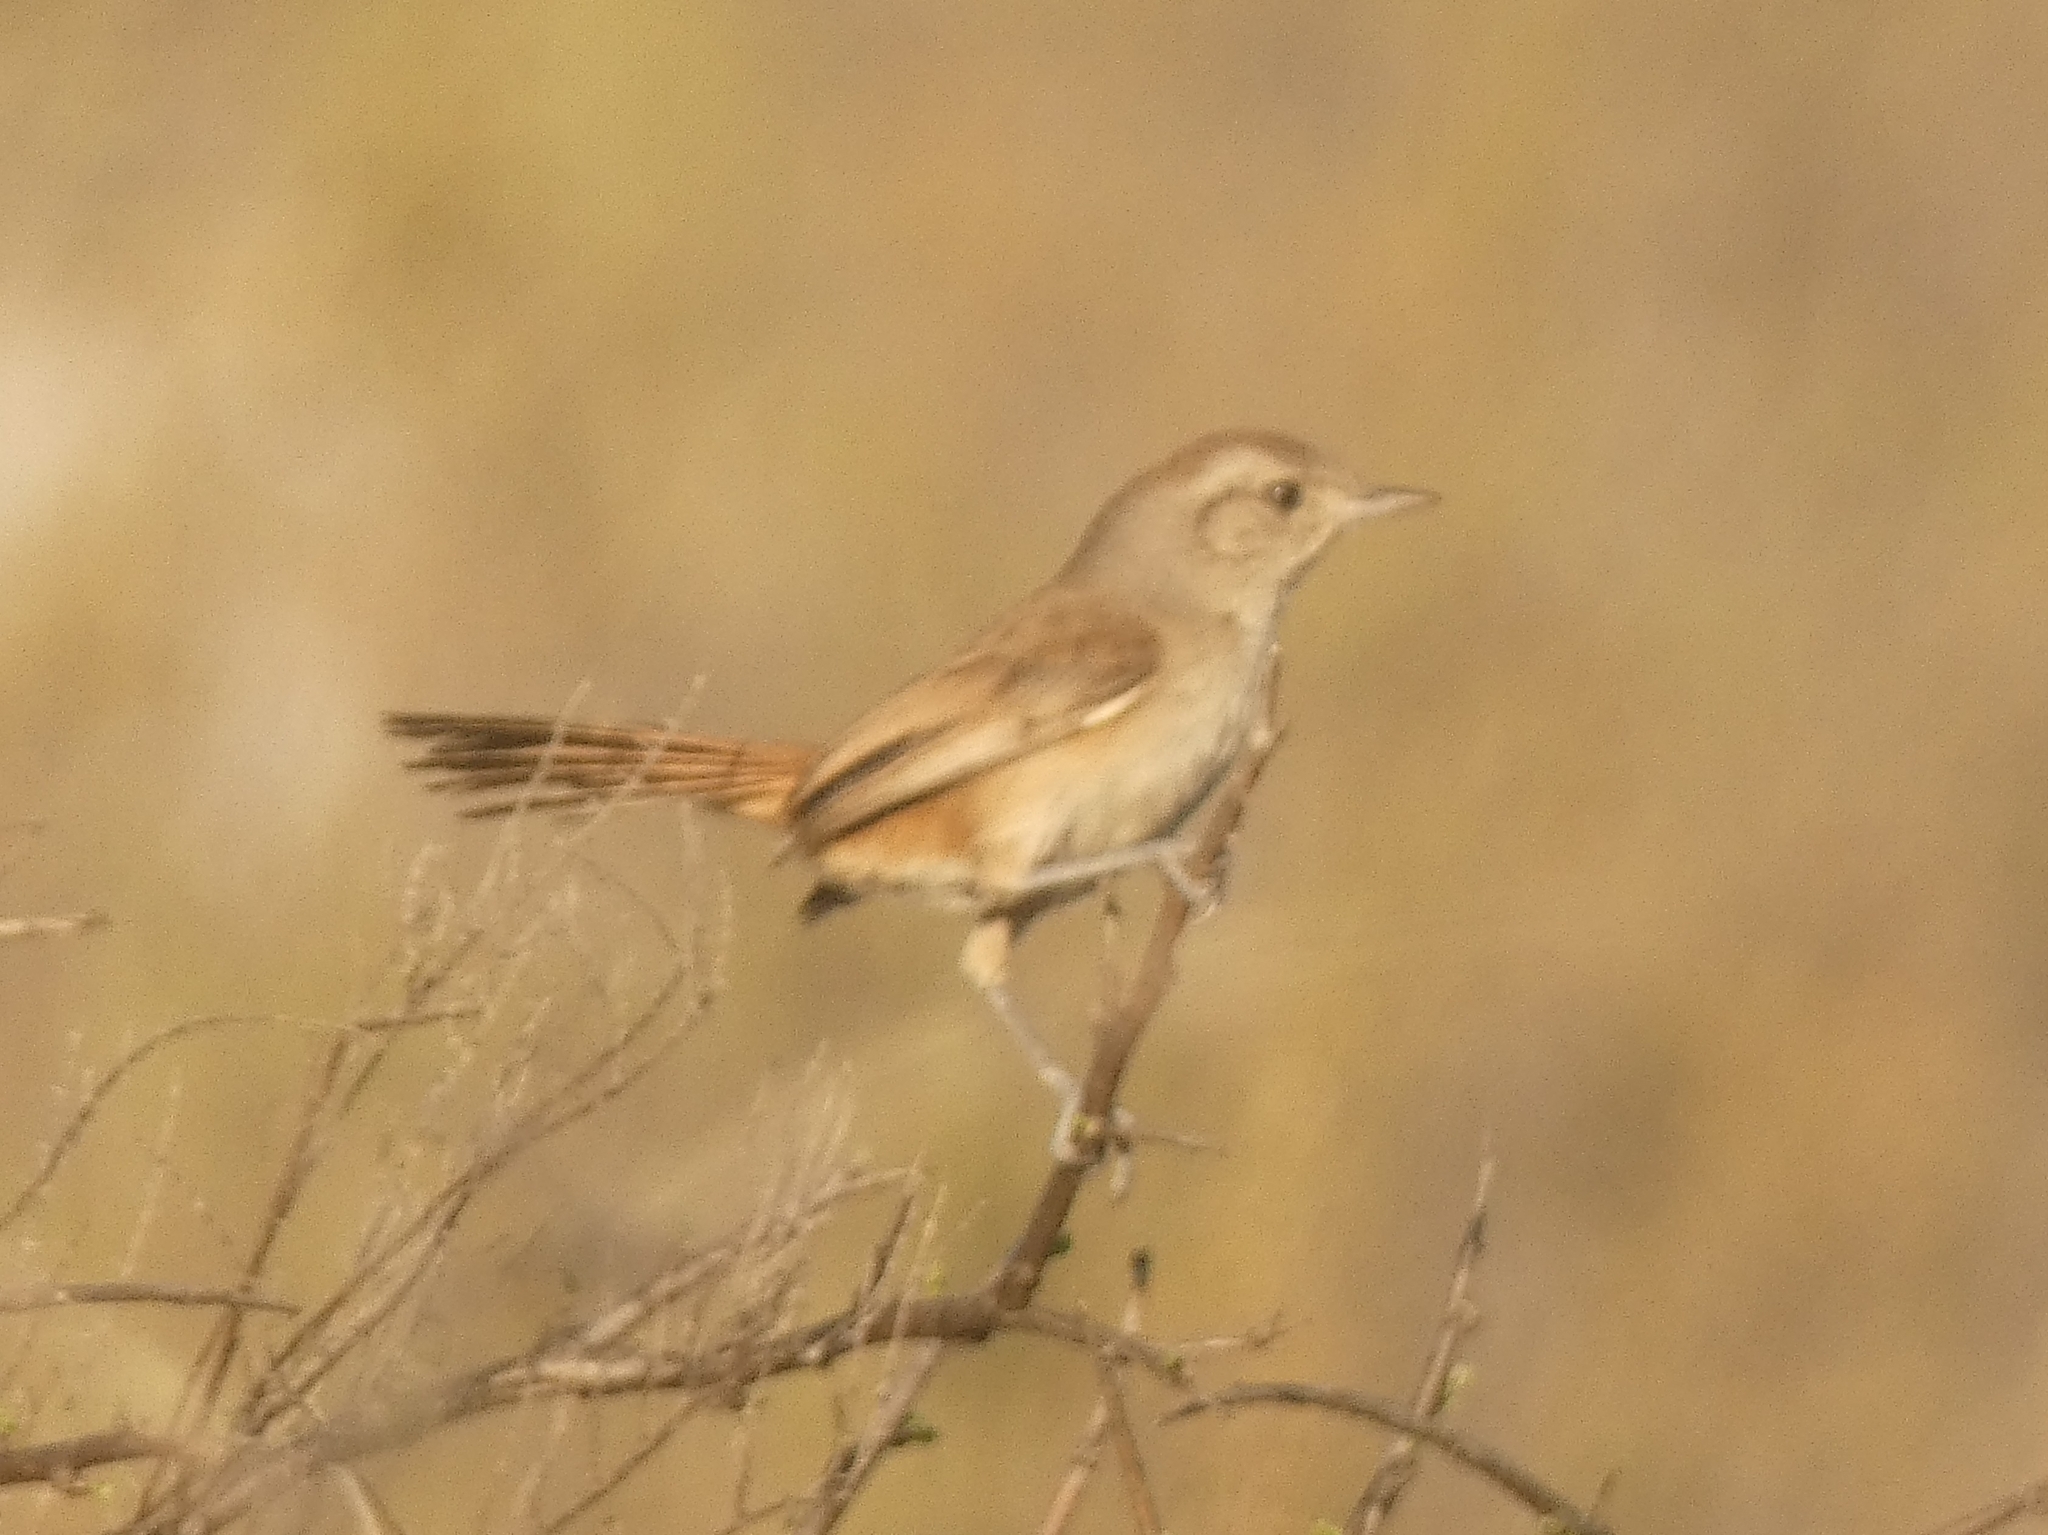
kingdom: Animalia
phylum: Chordata
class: Aves
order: Passeriformes
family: Furnariidae
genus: Asthenes
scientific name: Asthenes baeri
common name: Short-billed canastero
